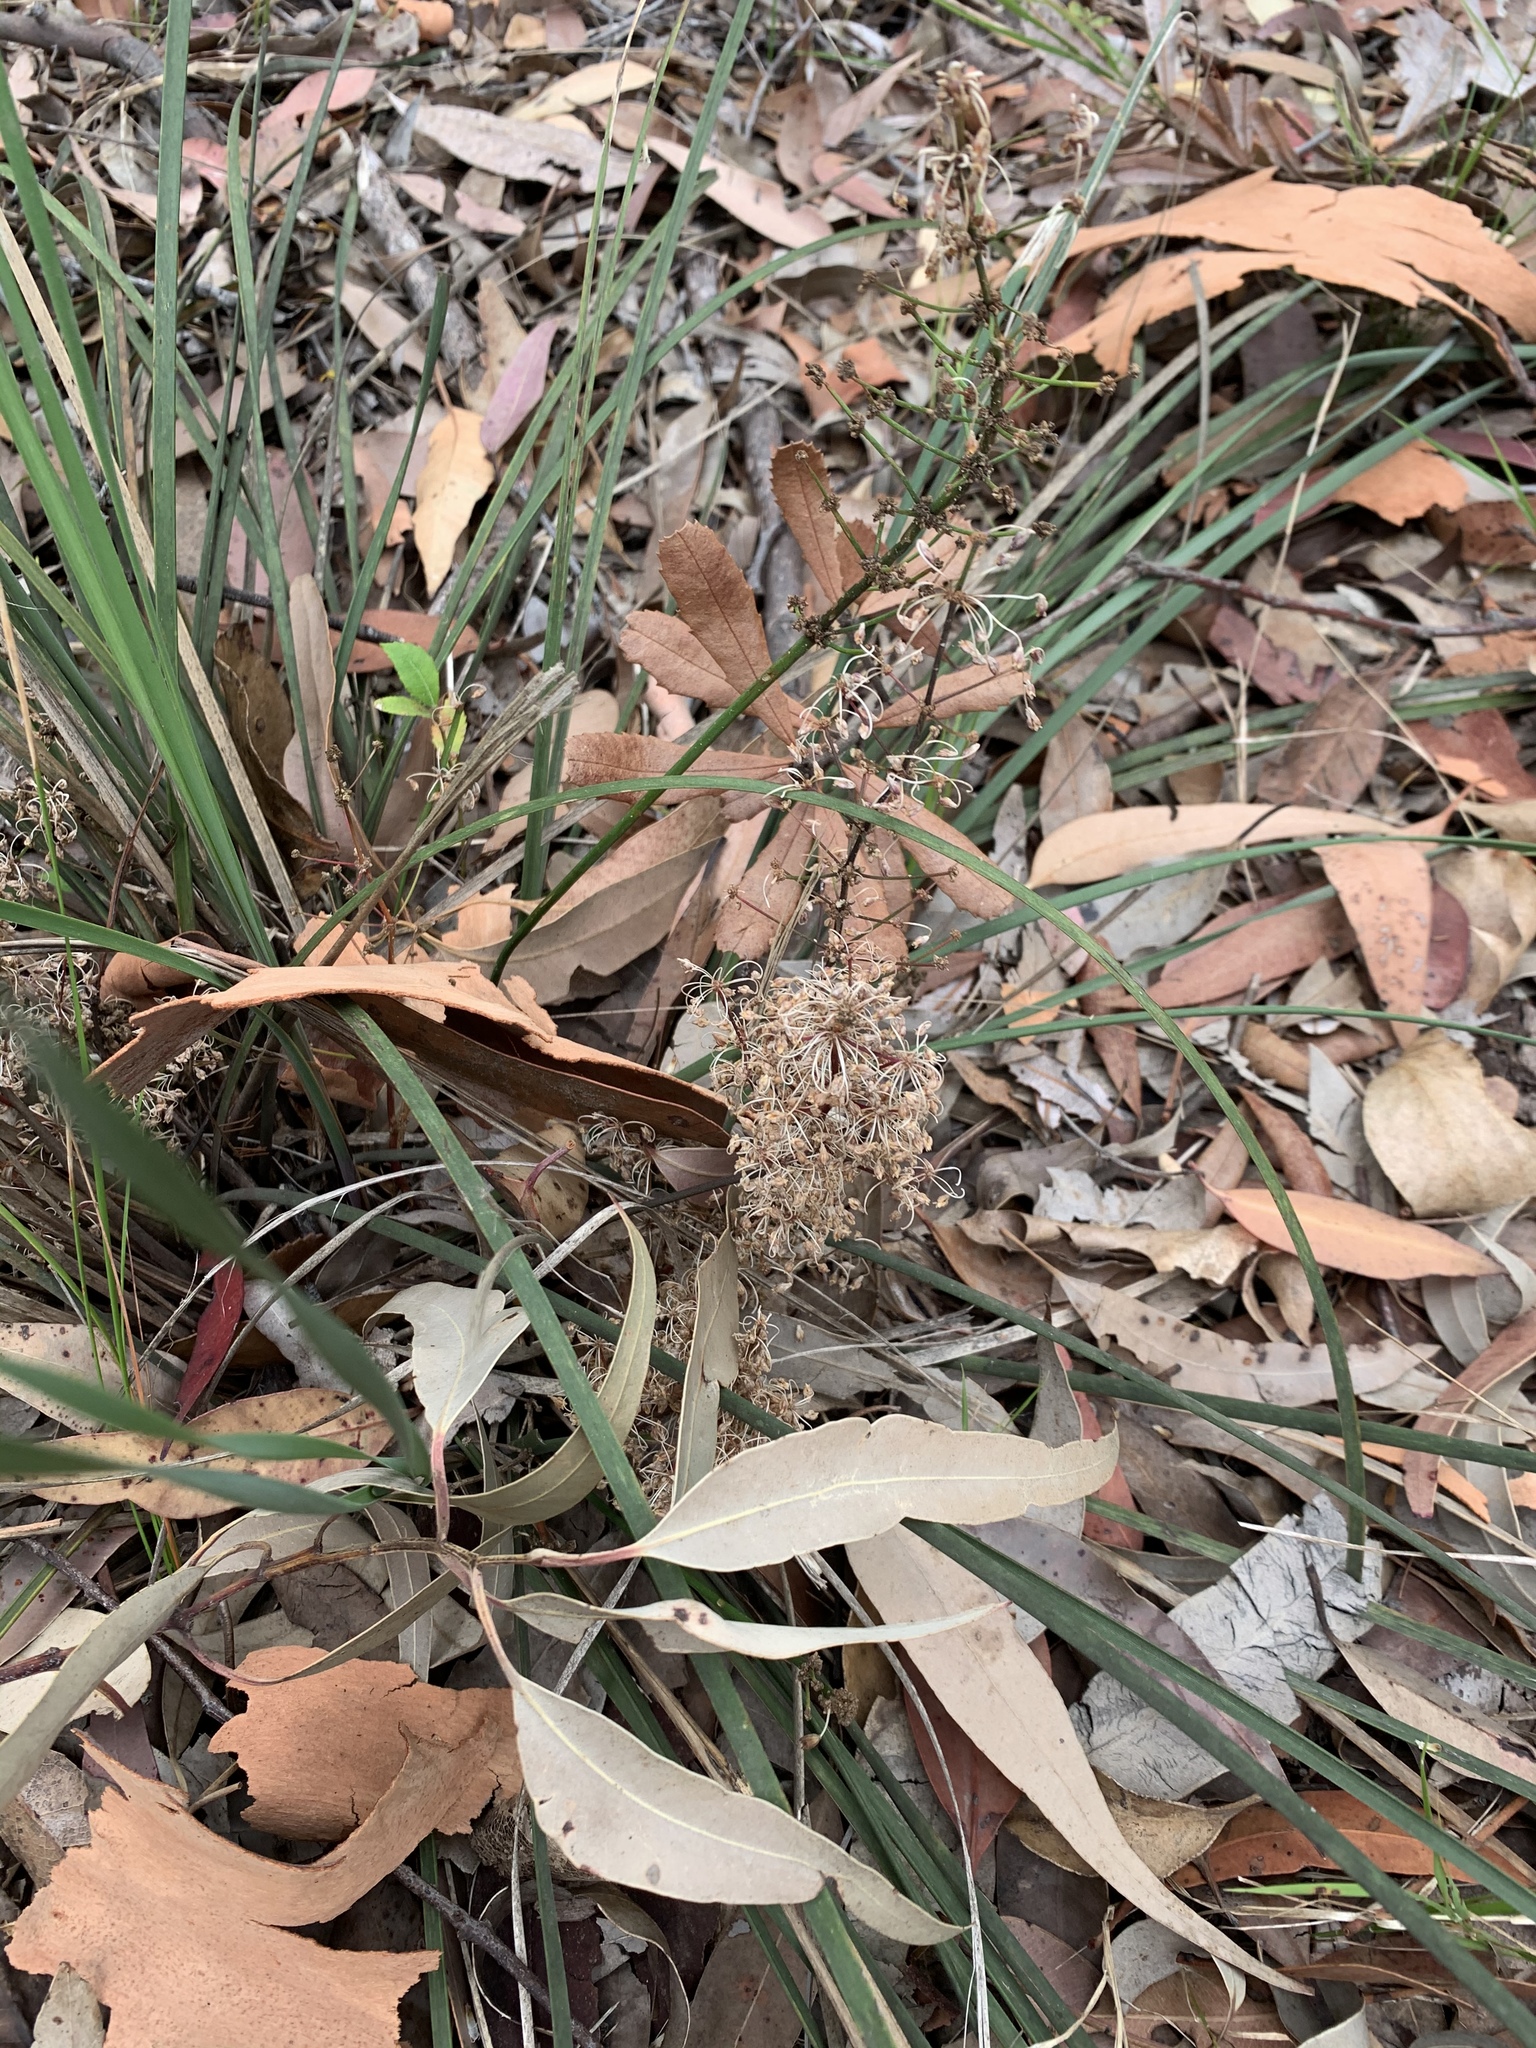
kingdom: Plantae
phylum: Tracheophyta
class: Liliopsida
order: Asparagales
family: Asparagaceae
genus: Lomandra
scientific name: Lomandra multiflora
